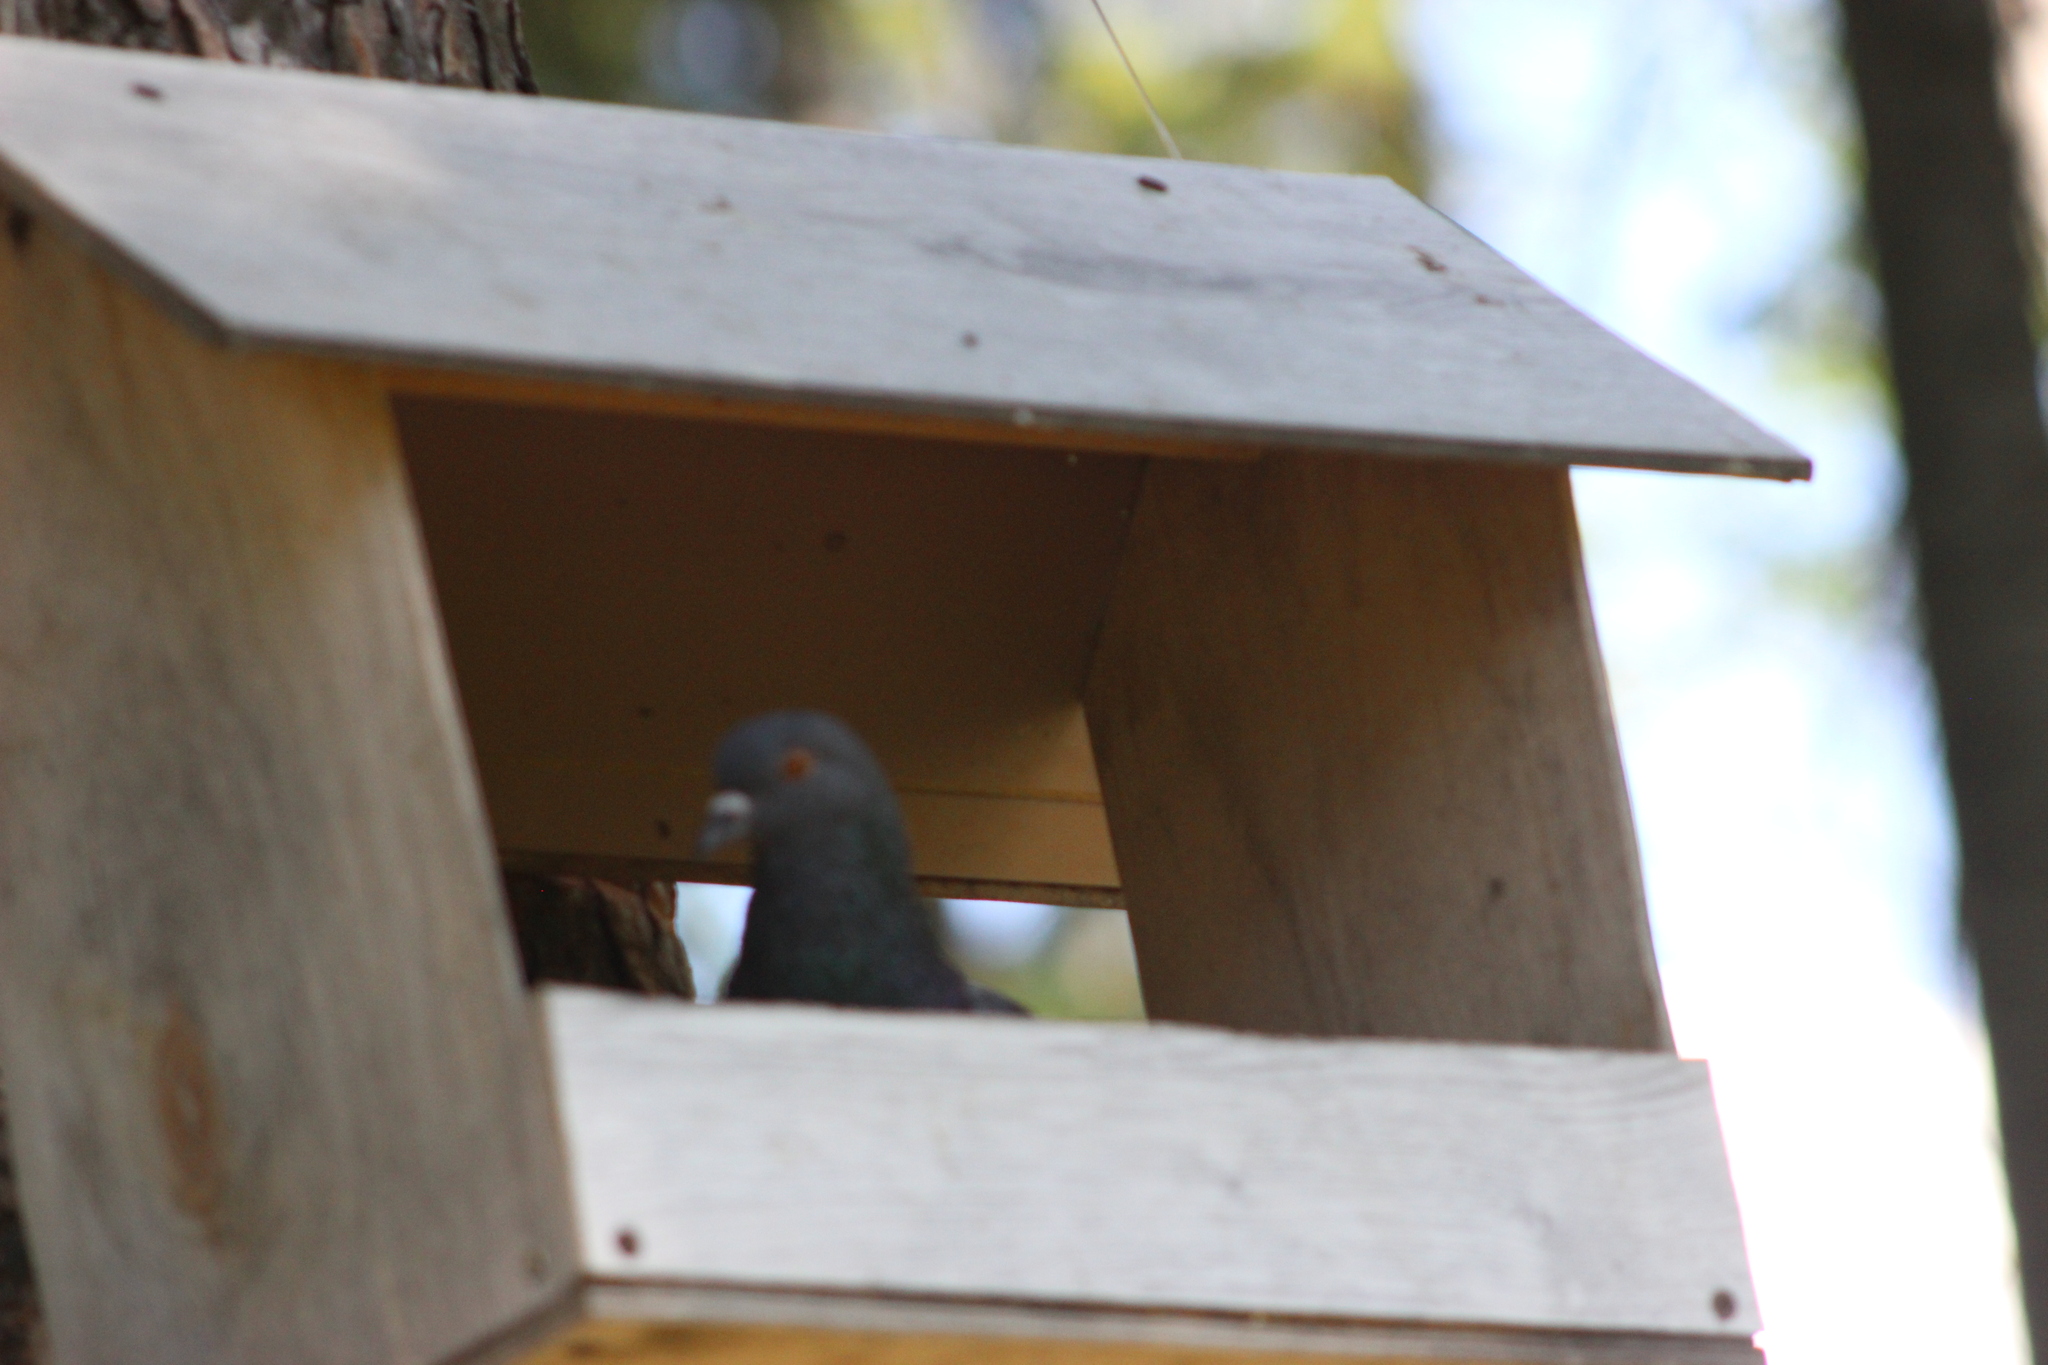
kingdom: Animalia
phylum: Chordata
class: Aves
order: Columbiformes
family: Columbidae
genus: Columba
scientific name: Columba livia
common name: Rock pigeon
